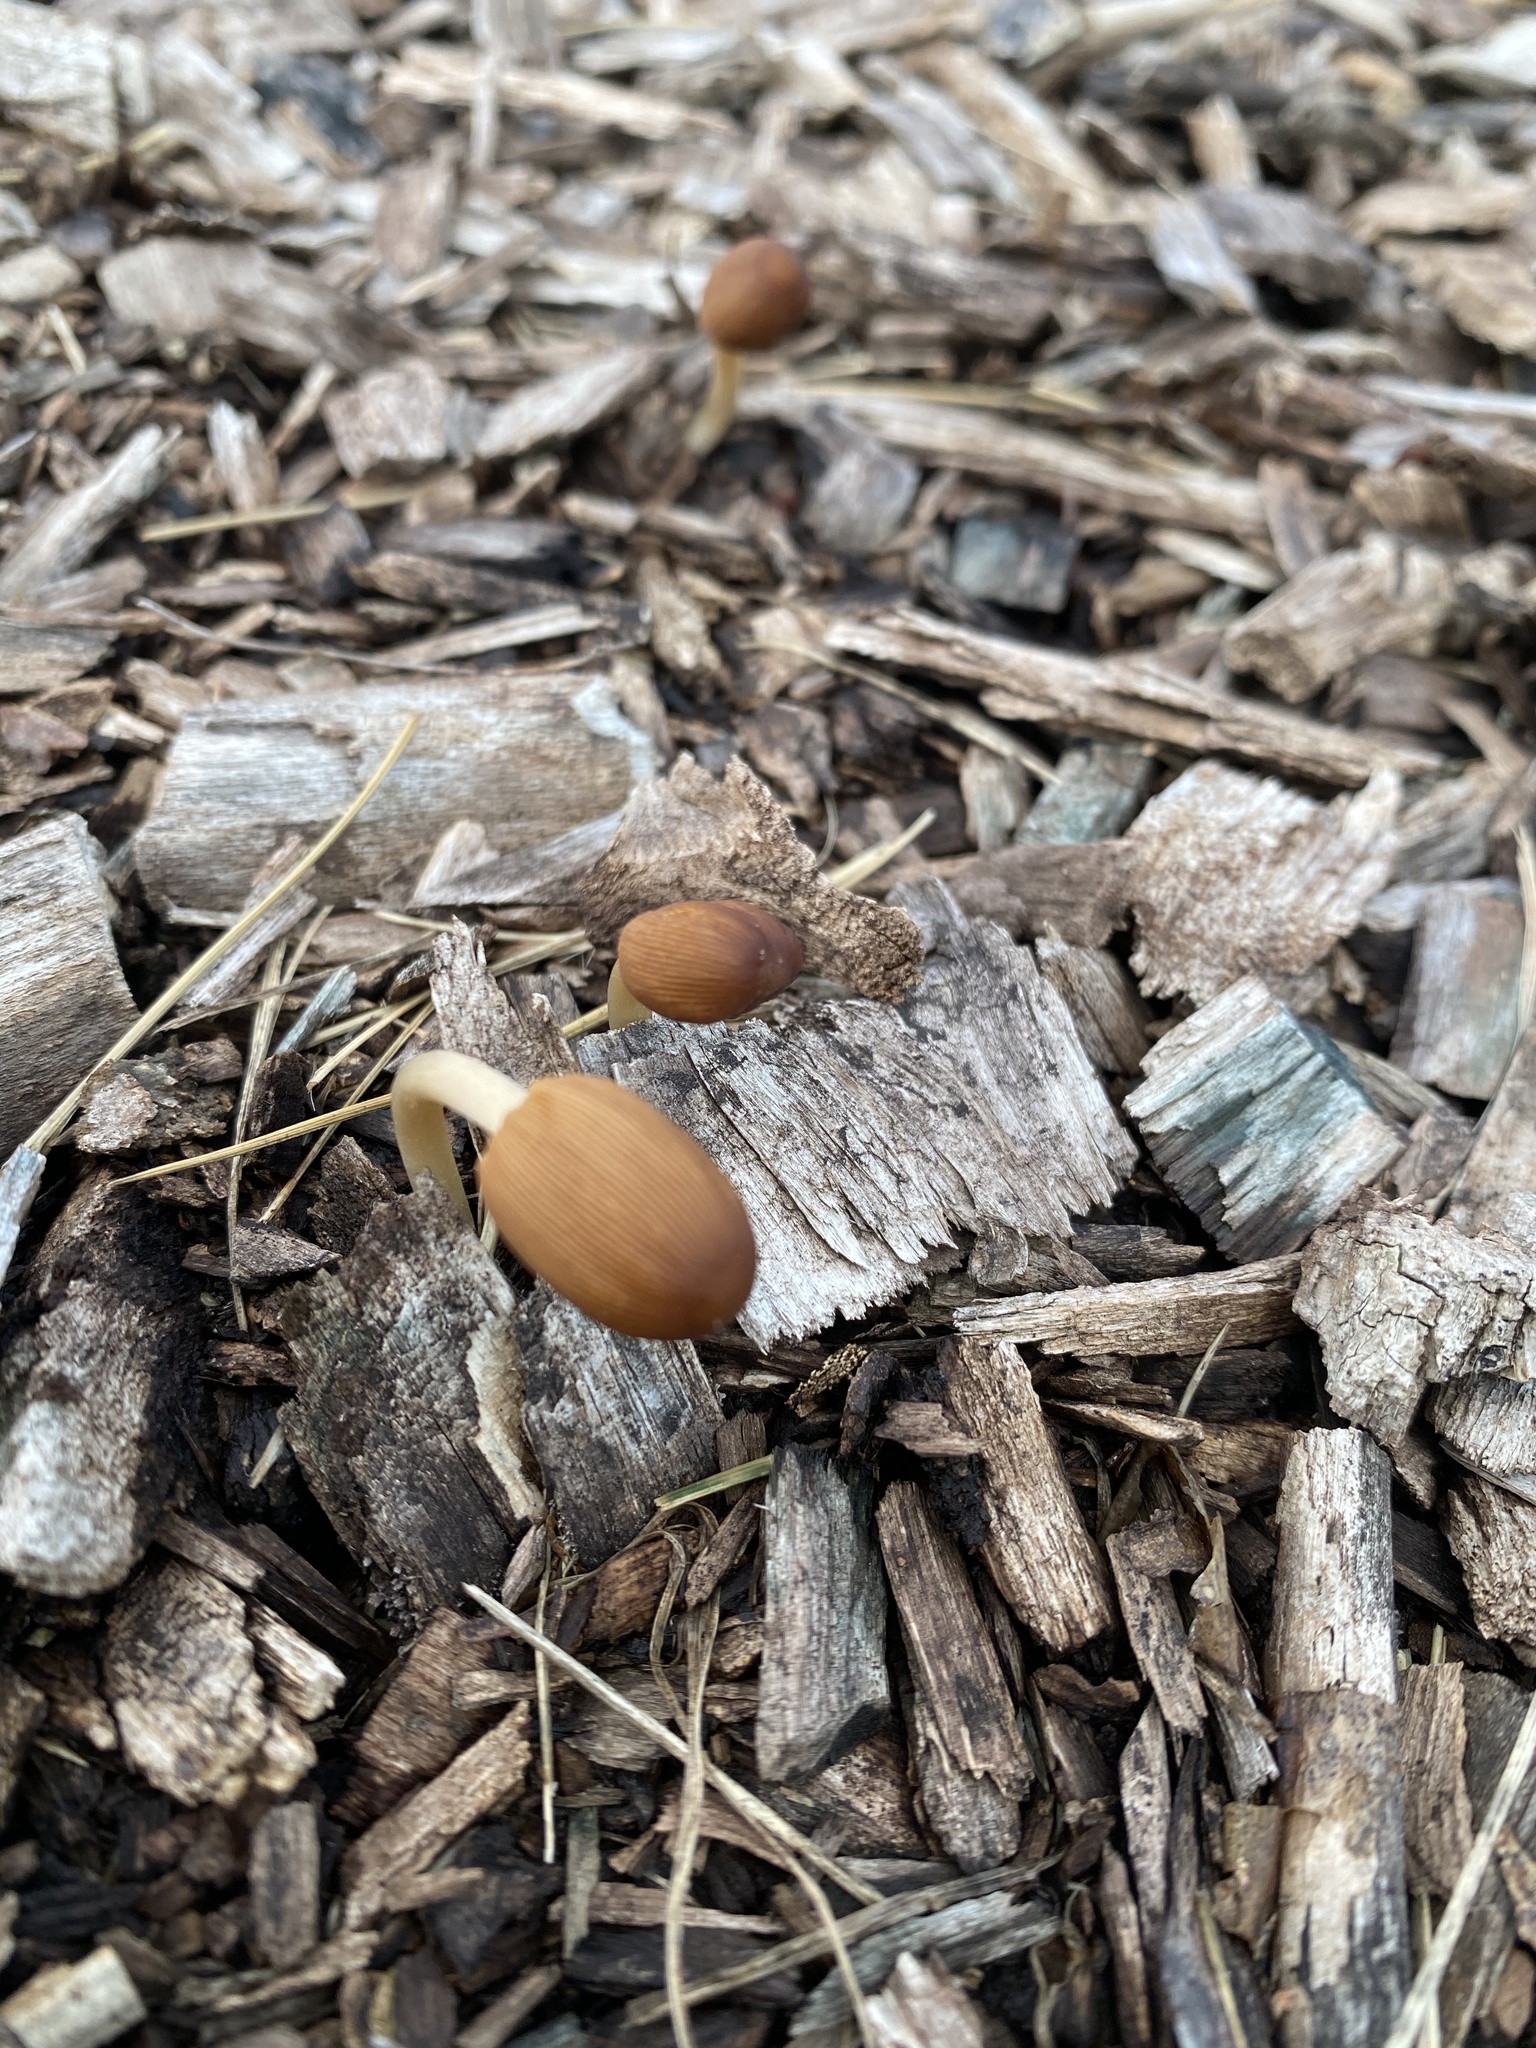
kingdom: Fungi
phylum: Basidiomycota
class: Agaricomycetes
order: Agaricales
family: Psathyrellaceae
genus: Parasola
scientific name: Parasola auricoma
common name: Goldenhaired inkcap
